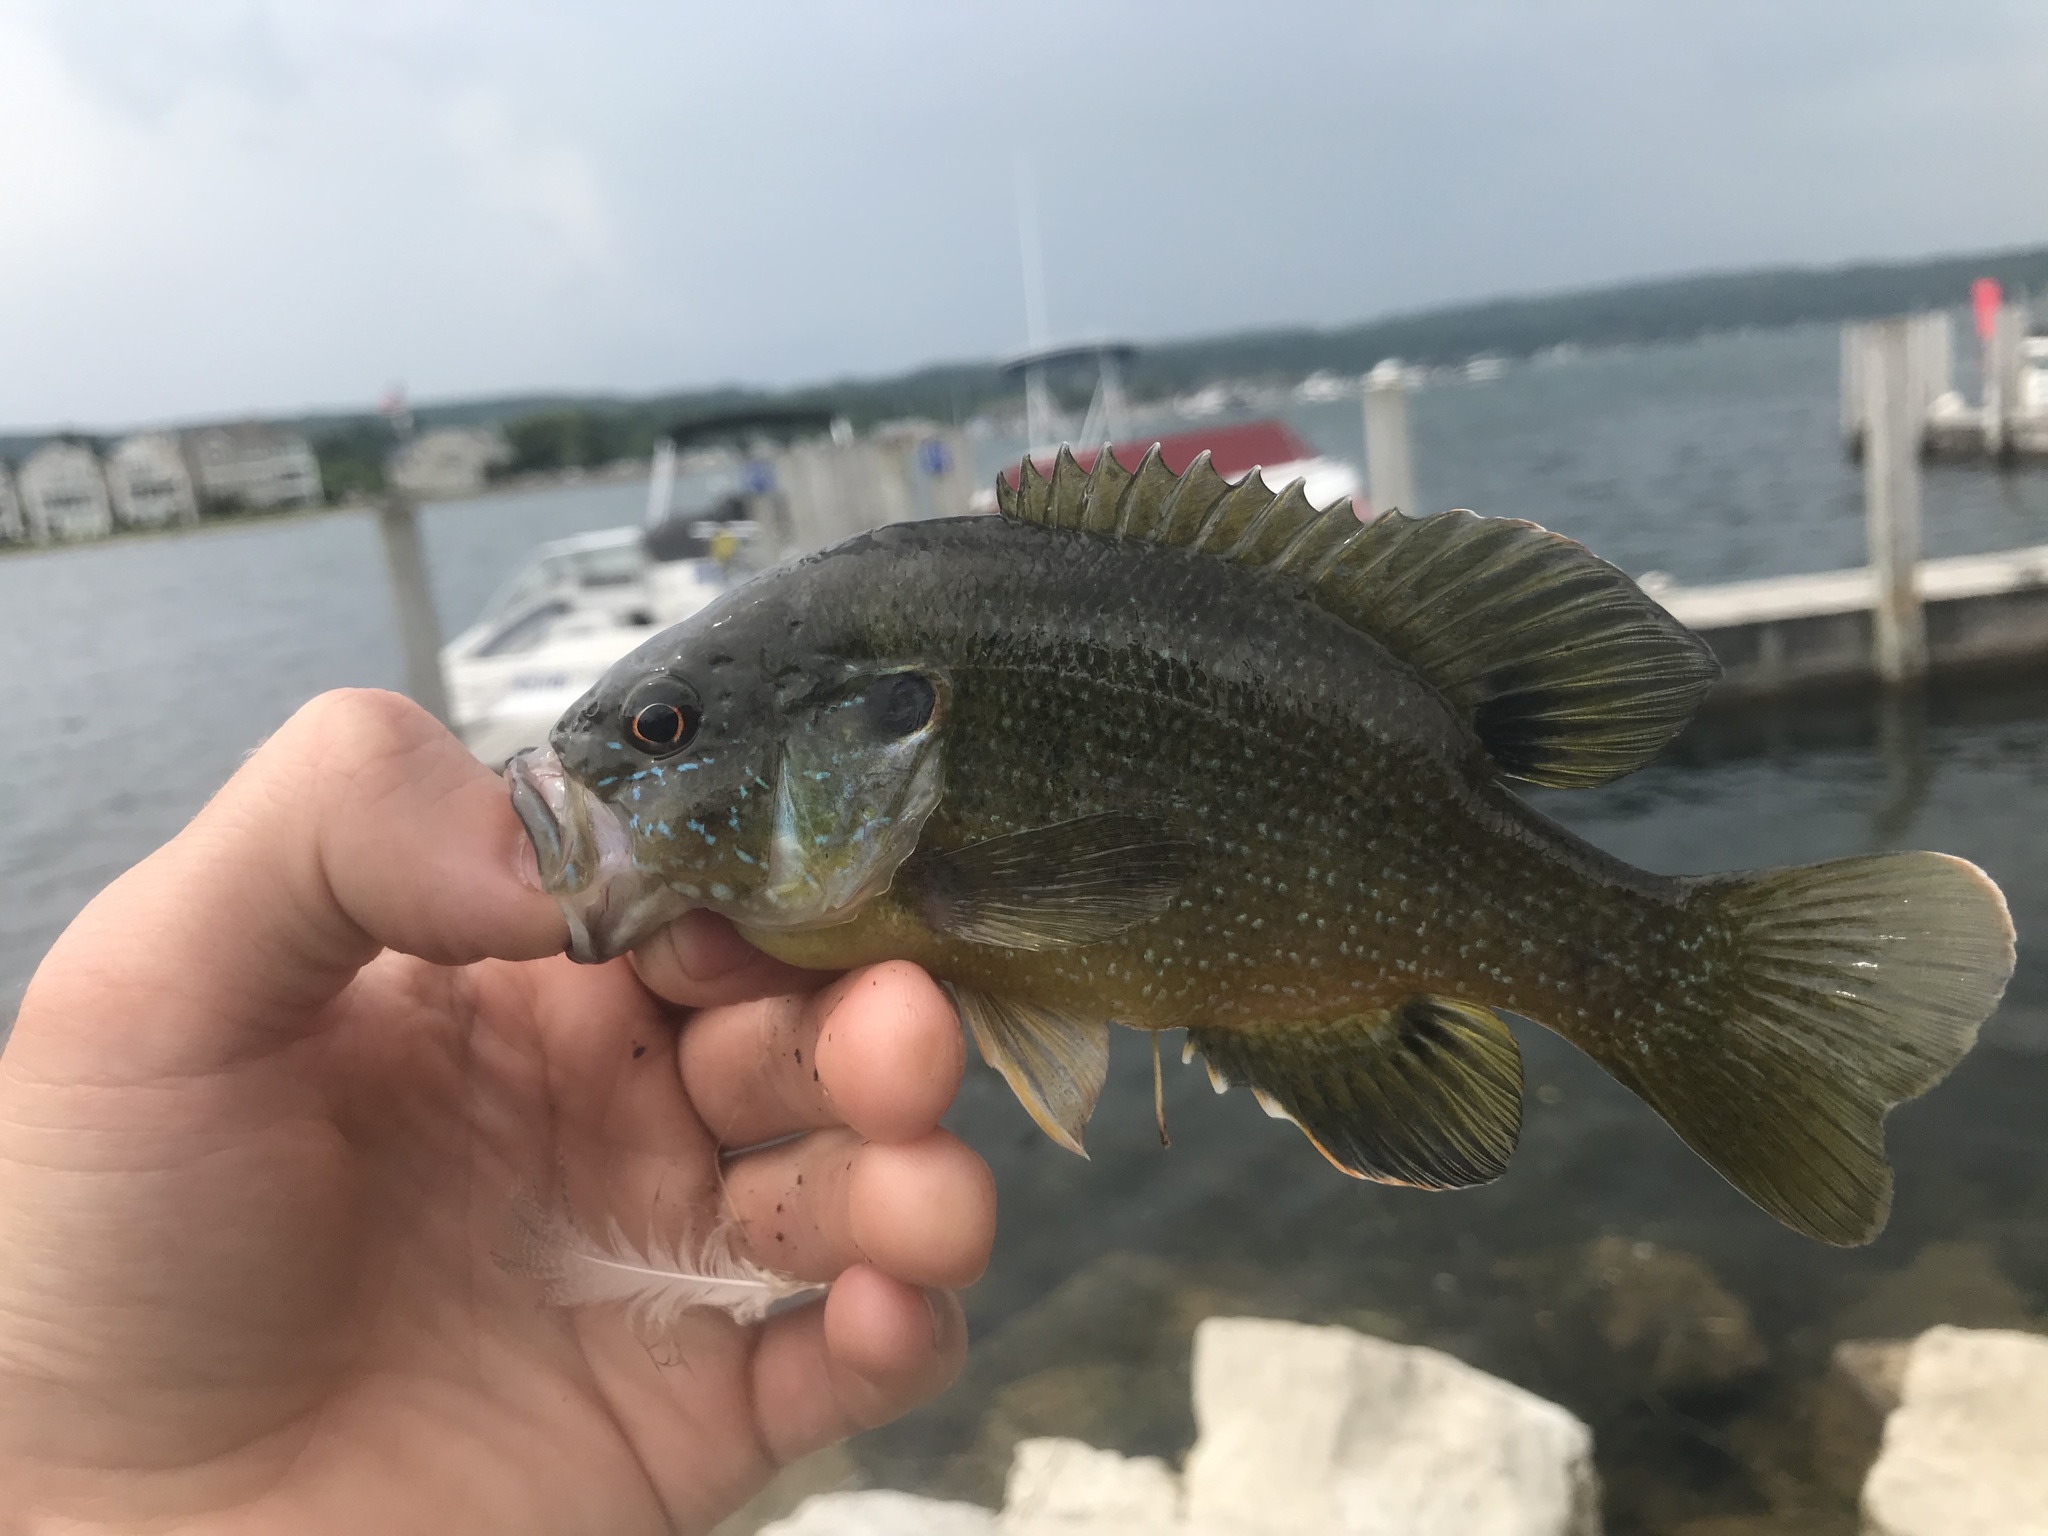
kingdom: Animalia
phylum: Chordata
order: Perciformes
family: Centrarchidae
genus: Lepomis
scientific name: Lepomis cyanellus
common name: Green sunfish
